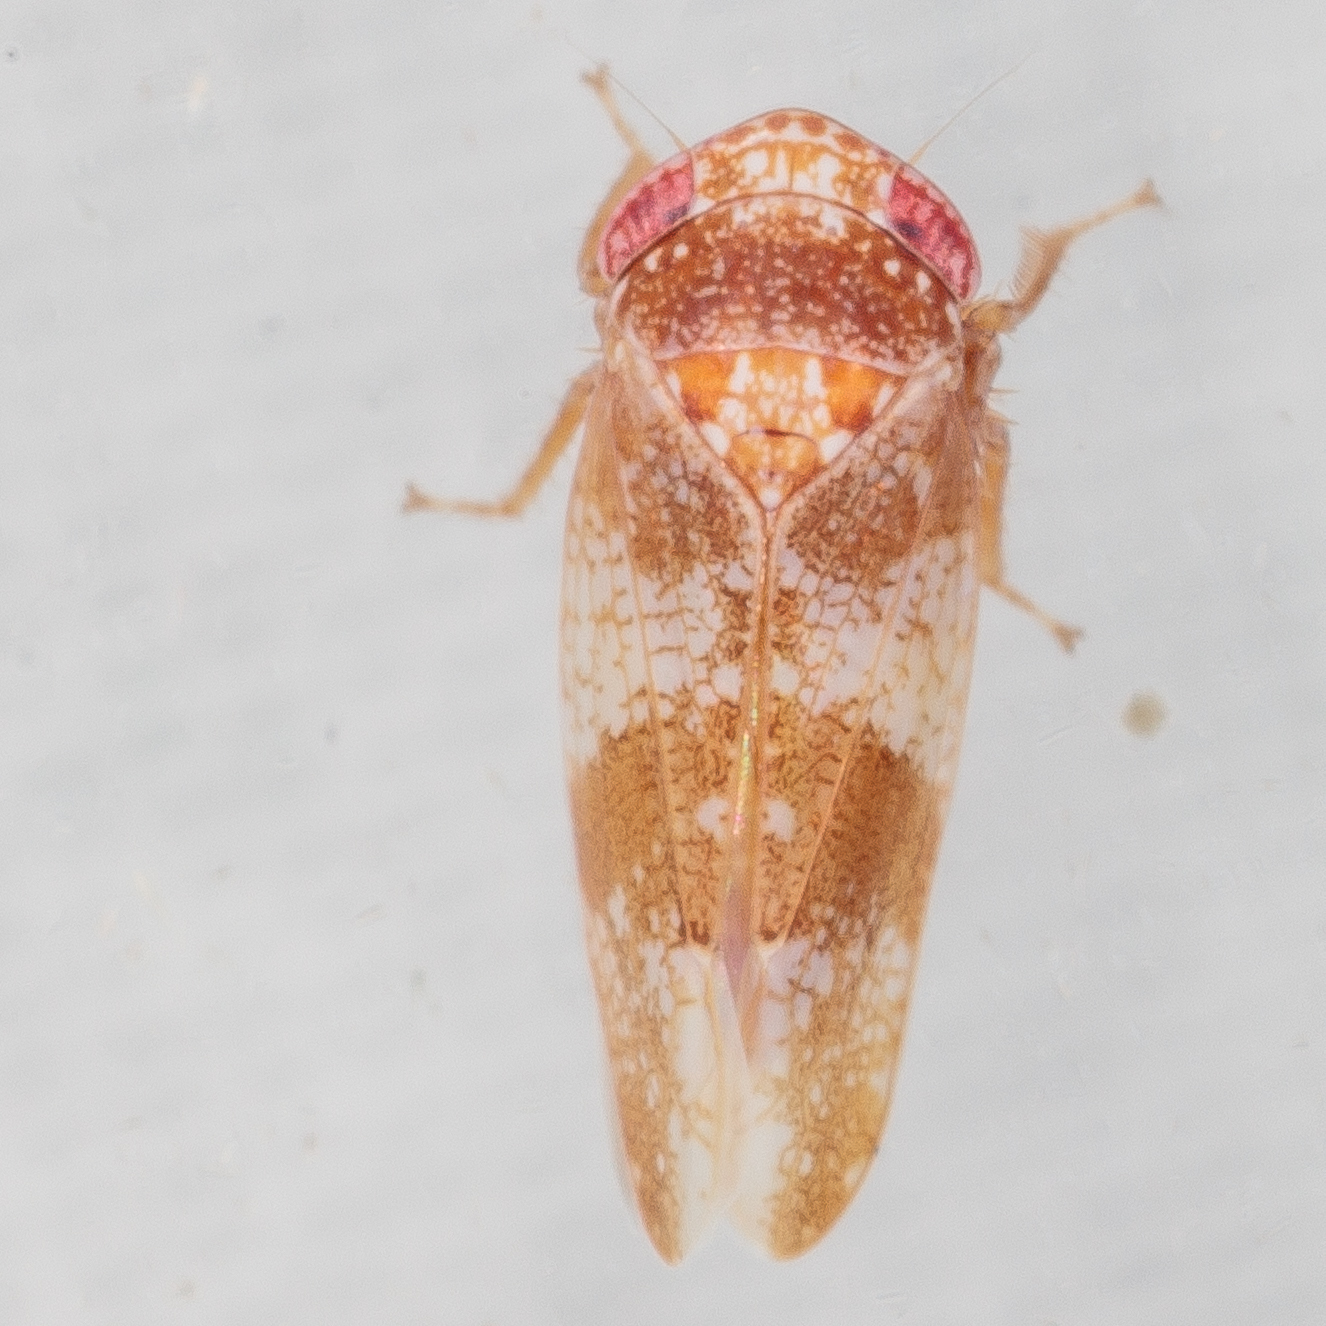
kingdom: Animalia
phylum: Arthropoda
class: Insecta
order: Hemiptera
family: Cicadellidae
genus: Norvellina
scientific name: Norvellina helenae
